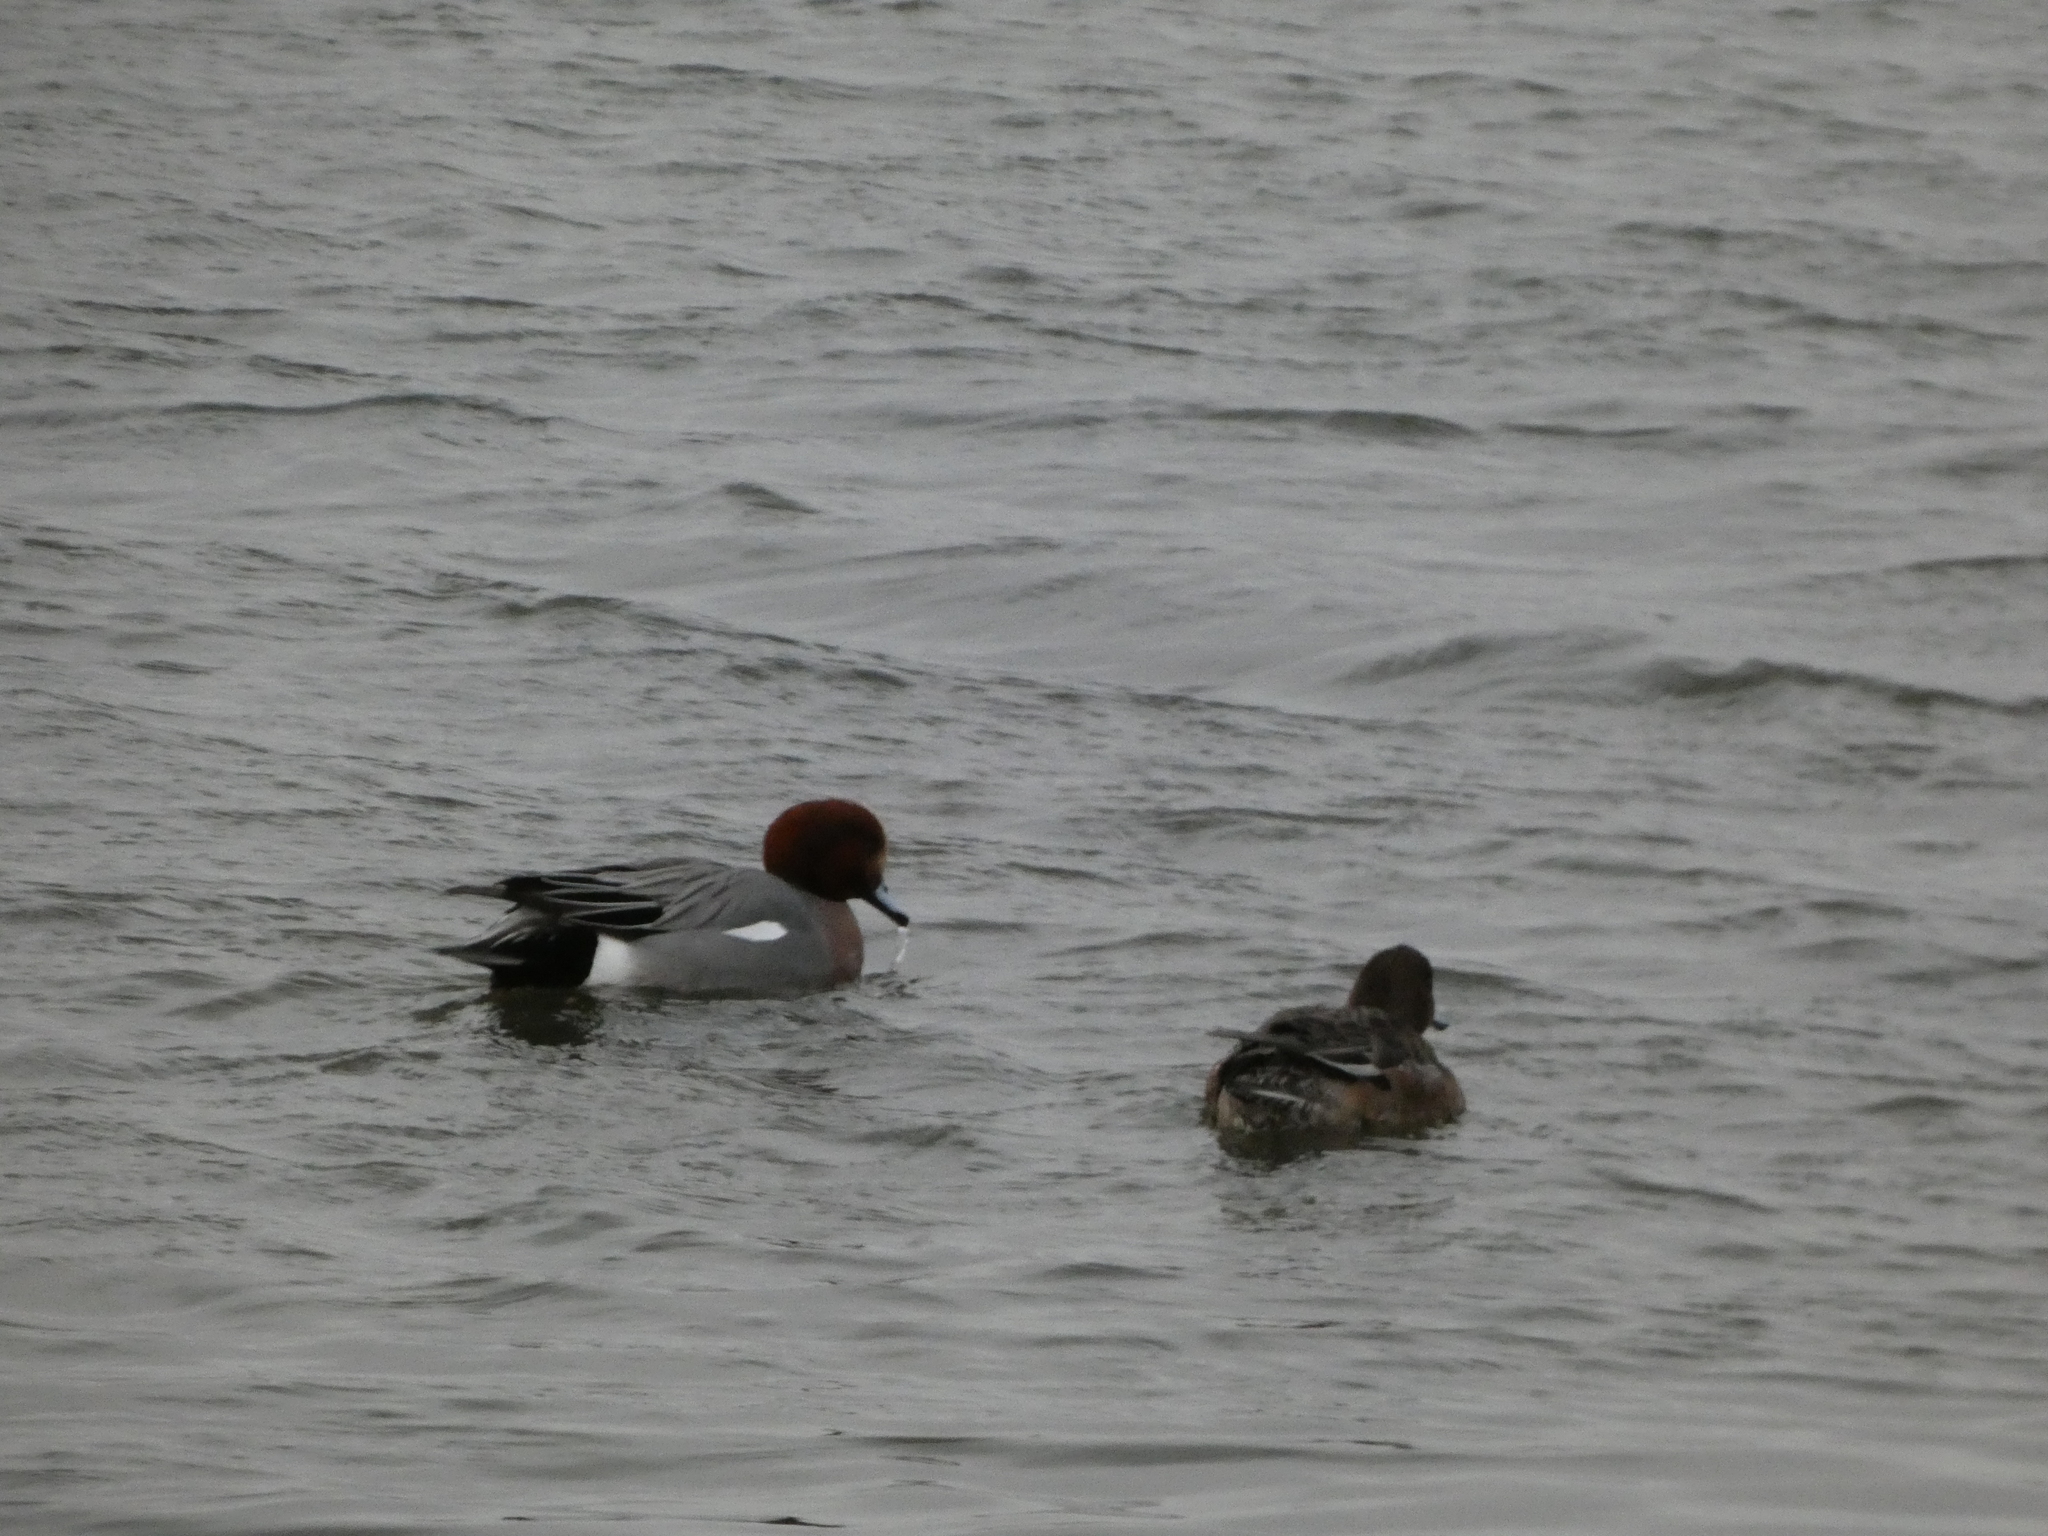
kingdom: Animalia
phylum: Chordata
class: Aves
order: Anseriformes
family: Anatidae
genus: Mareca
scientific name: Mareca penelope
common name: Eurasian wigeon
